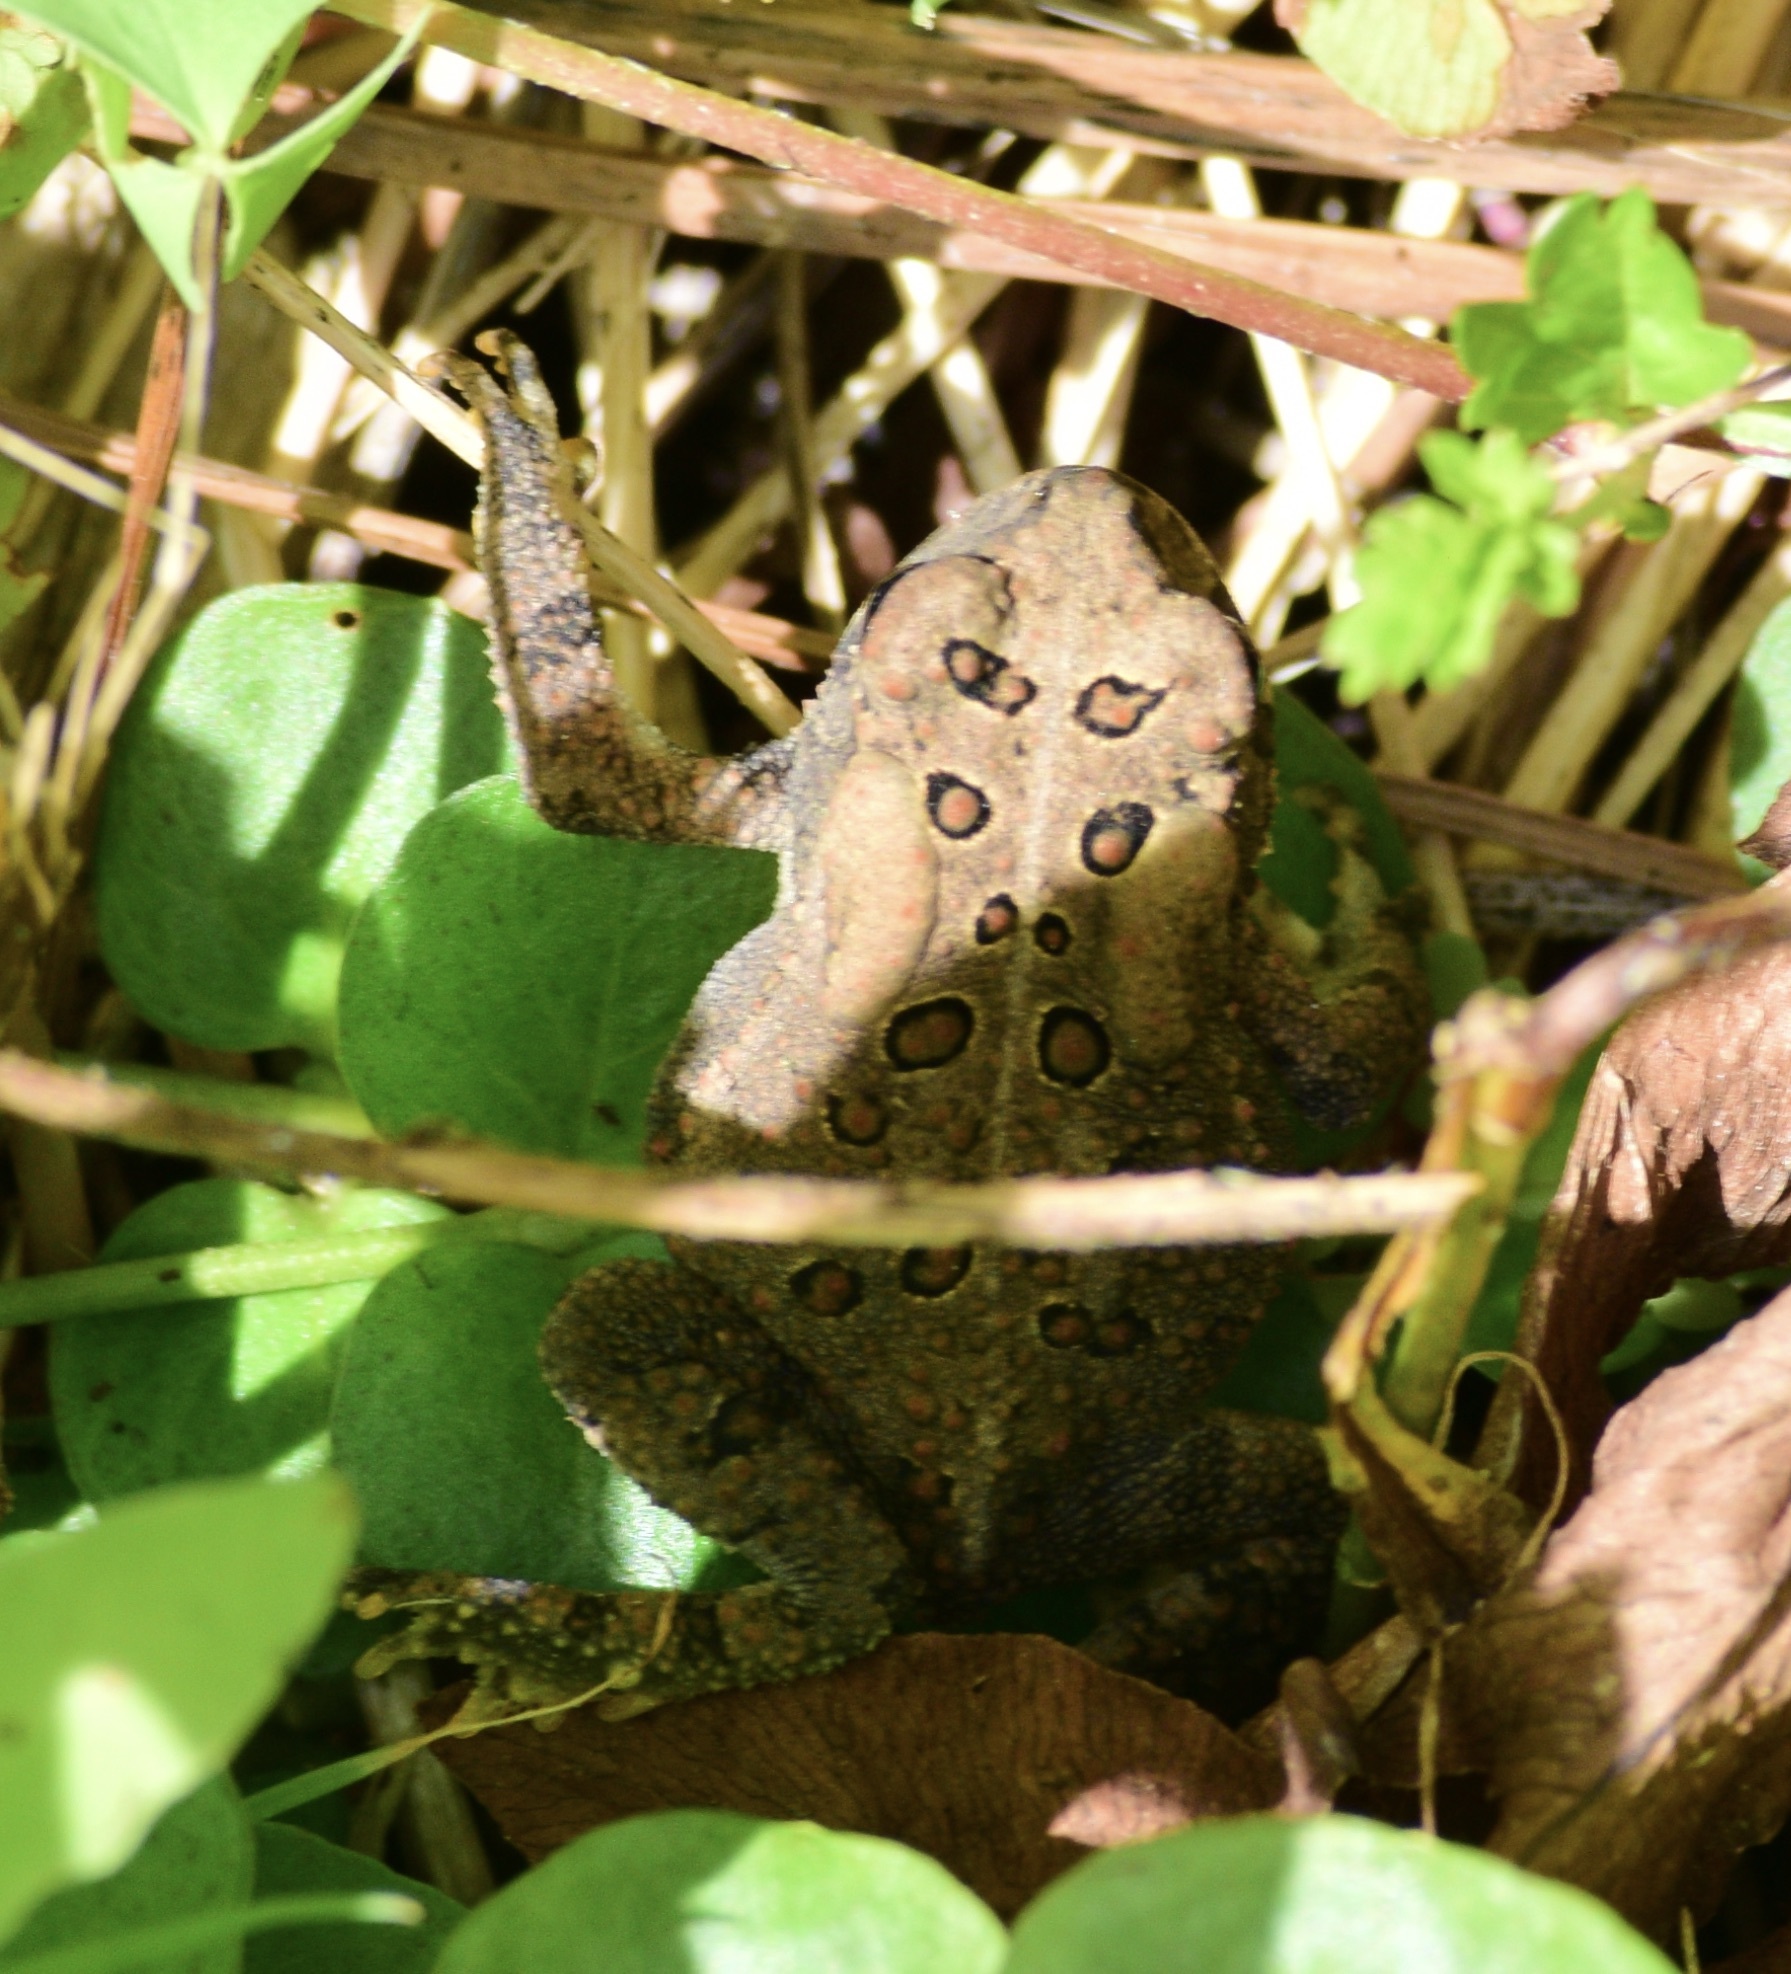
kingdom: Animalia
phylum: Chordata
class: Amphibia
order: Anura
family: Bufonidae
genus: Anaxyrus
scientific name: Anaxyrus americanus
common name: American toad
